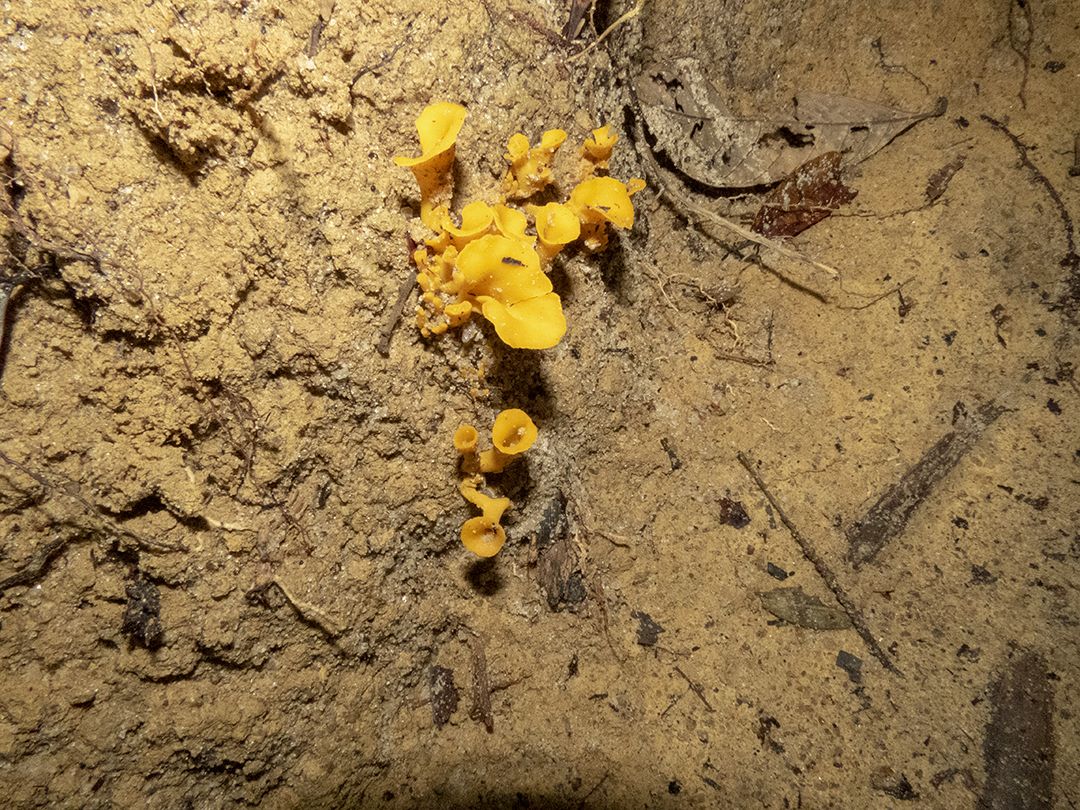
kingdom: Fungi
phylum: Basidiomycota
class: Agaricomycetes
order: Cantharellales
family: Hydnaceae
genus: Craterellus
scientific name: Craterellus aureus
